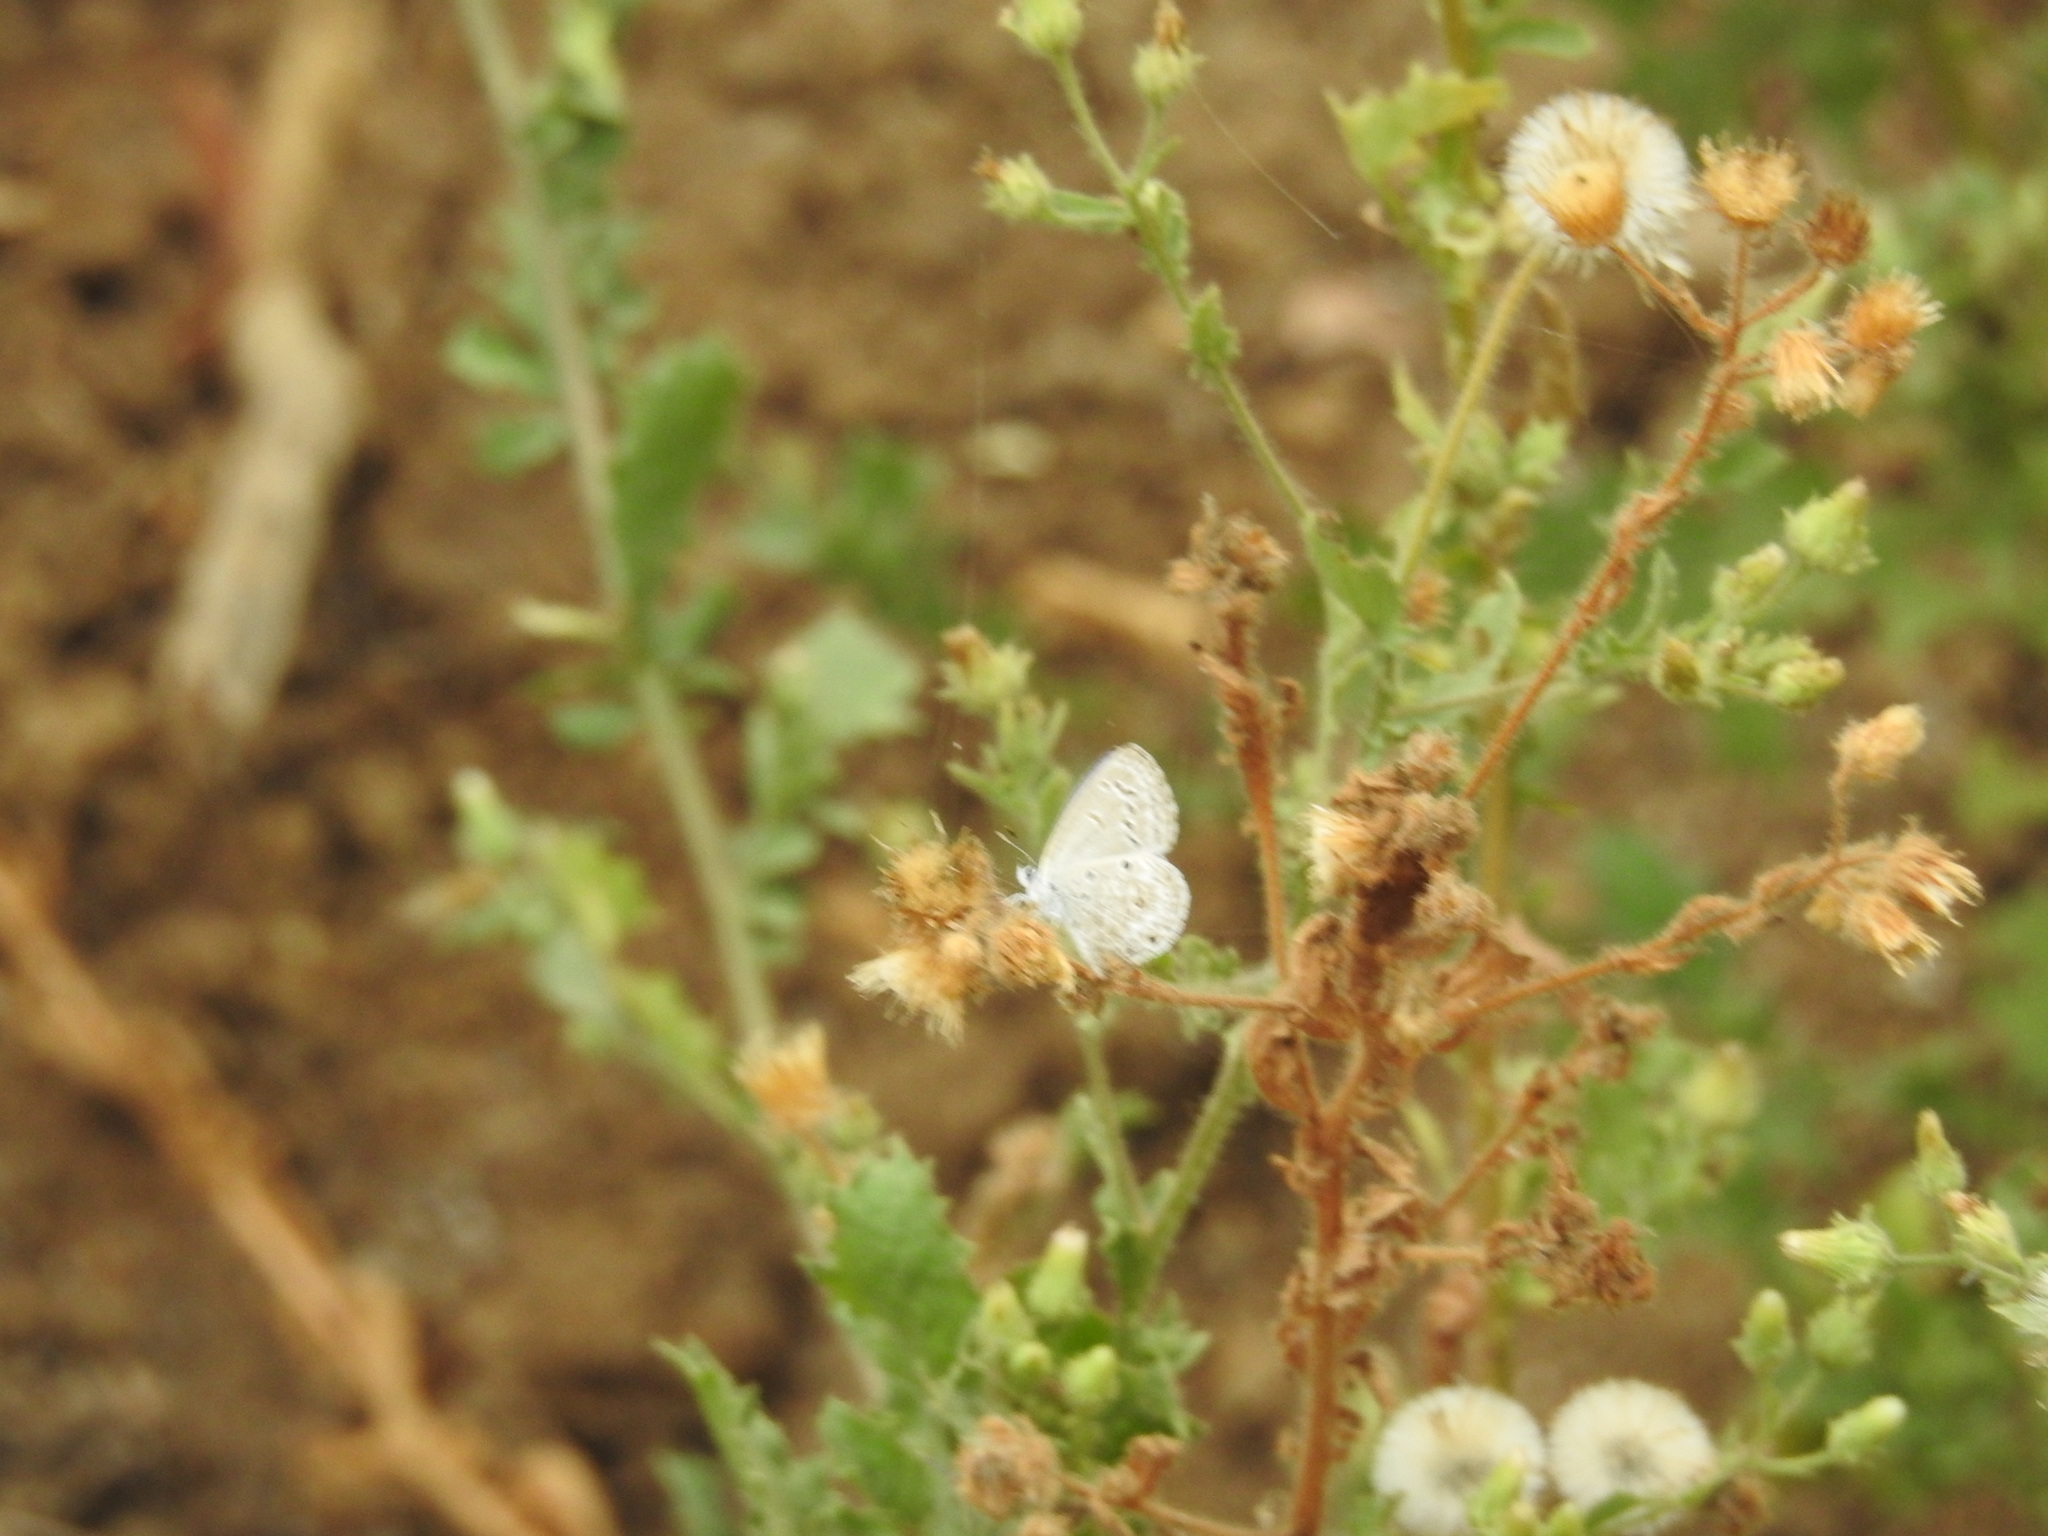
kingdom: Animalia
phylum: Arthropoda
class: Insecta
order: Lepidoptera
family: Lycaenidae
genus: Zizula
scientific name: Zizula hylax
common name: Gaika blue
